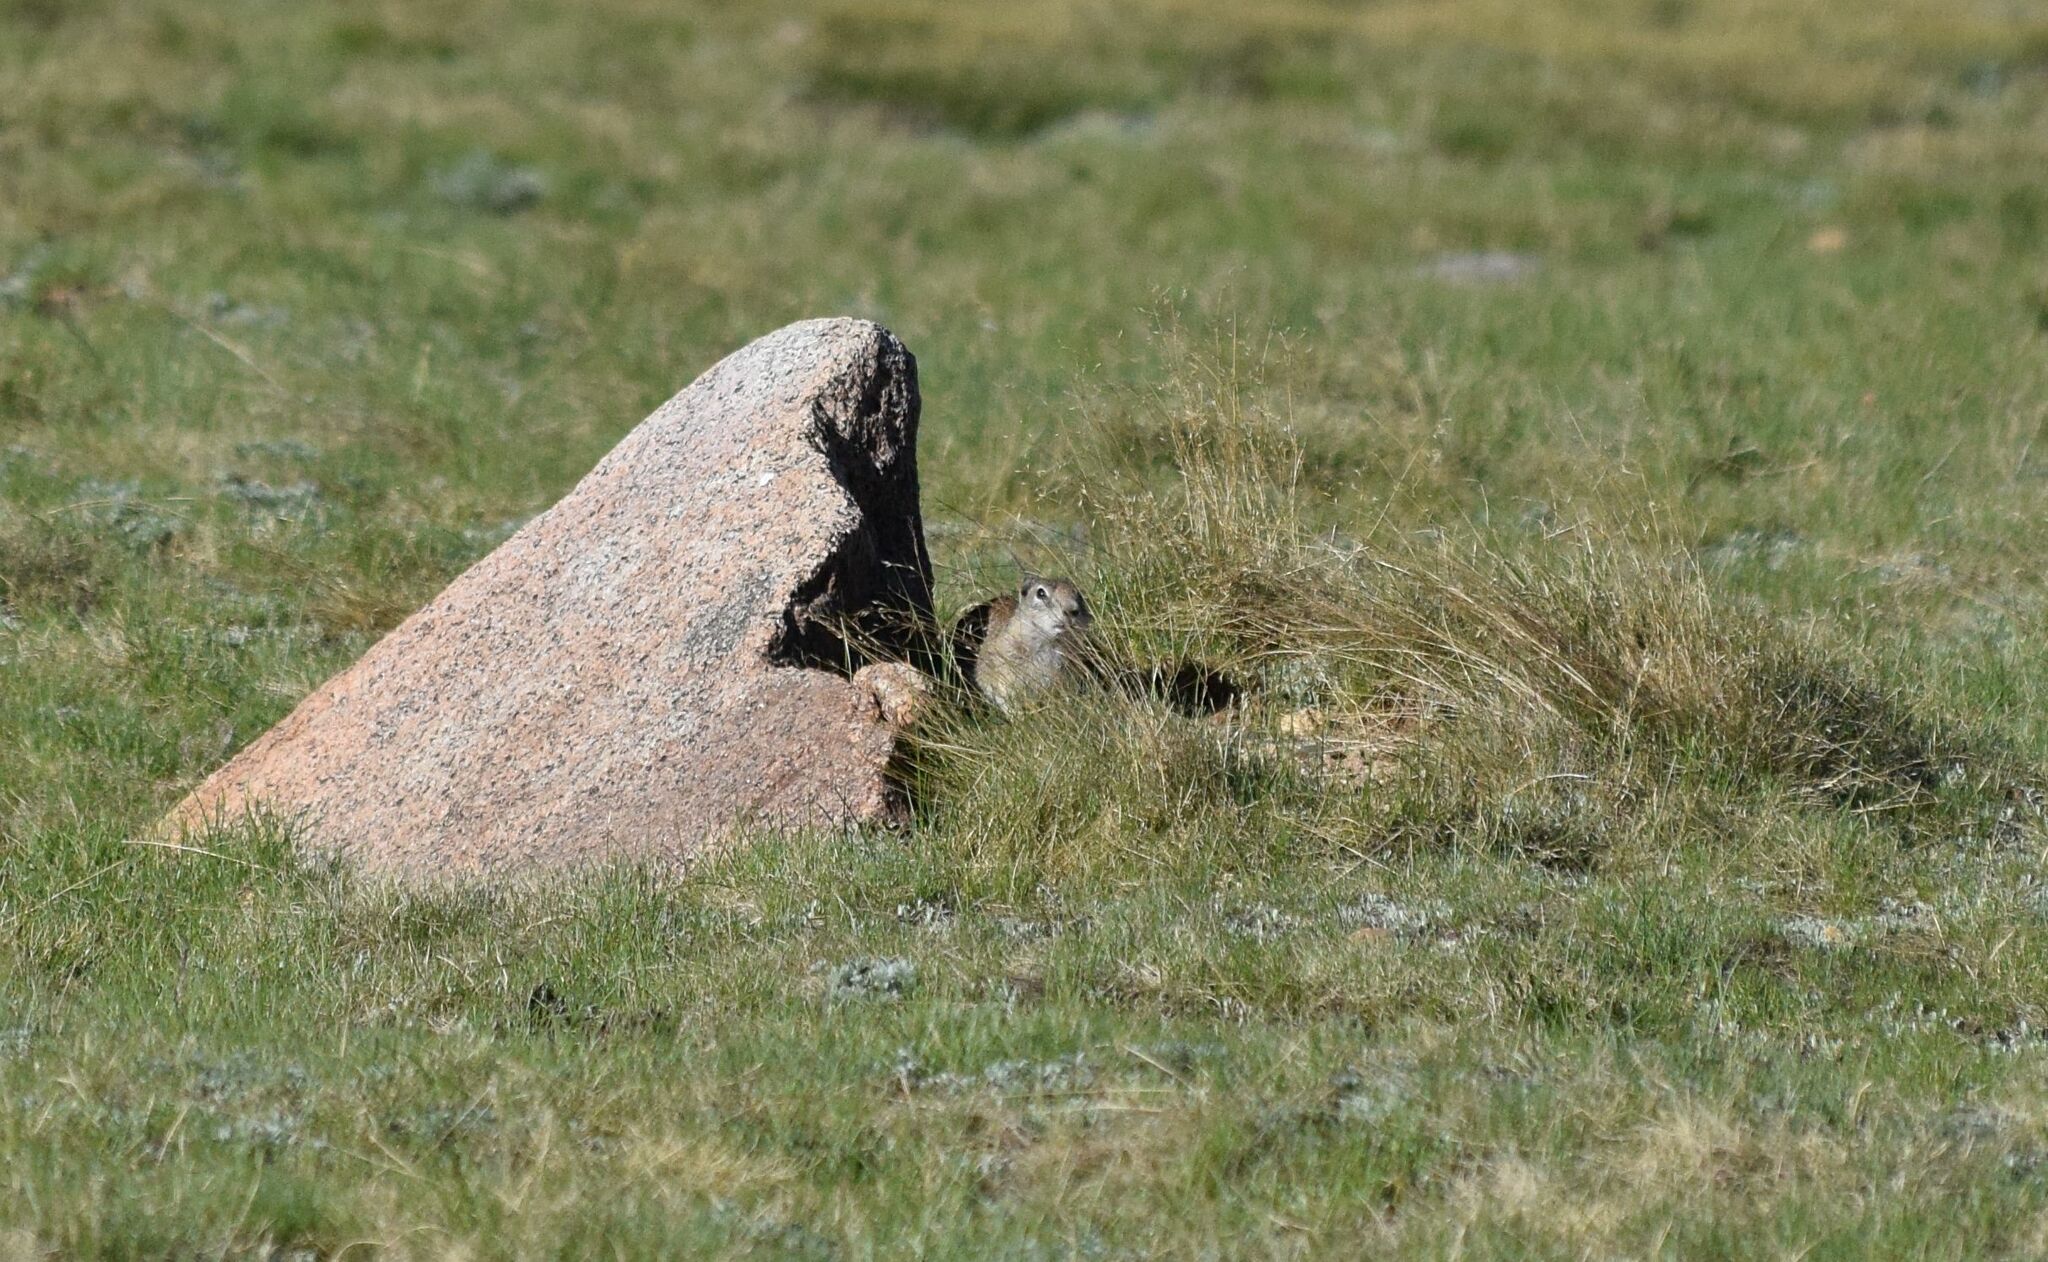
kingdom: Animalia
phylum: Chordata
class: Mammalia
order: Rodentia
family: Sciuridae
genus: Urocitellus
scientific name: Urocitellus beldingi
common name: Belding's ground squirrel
